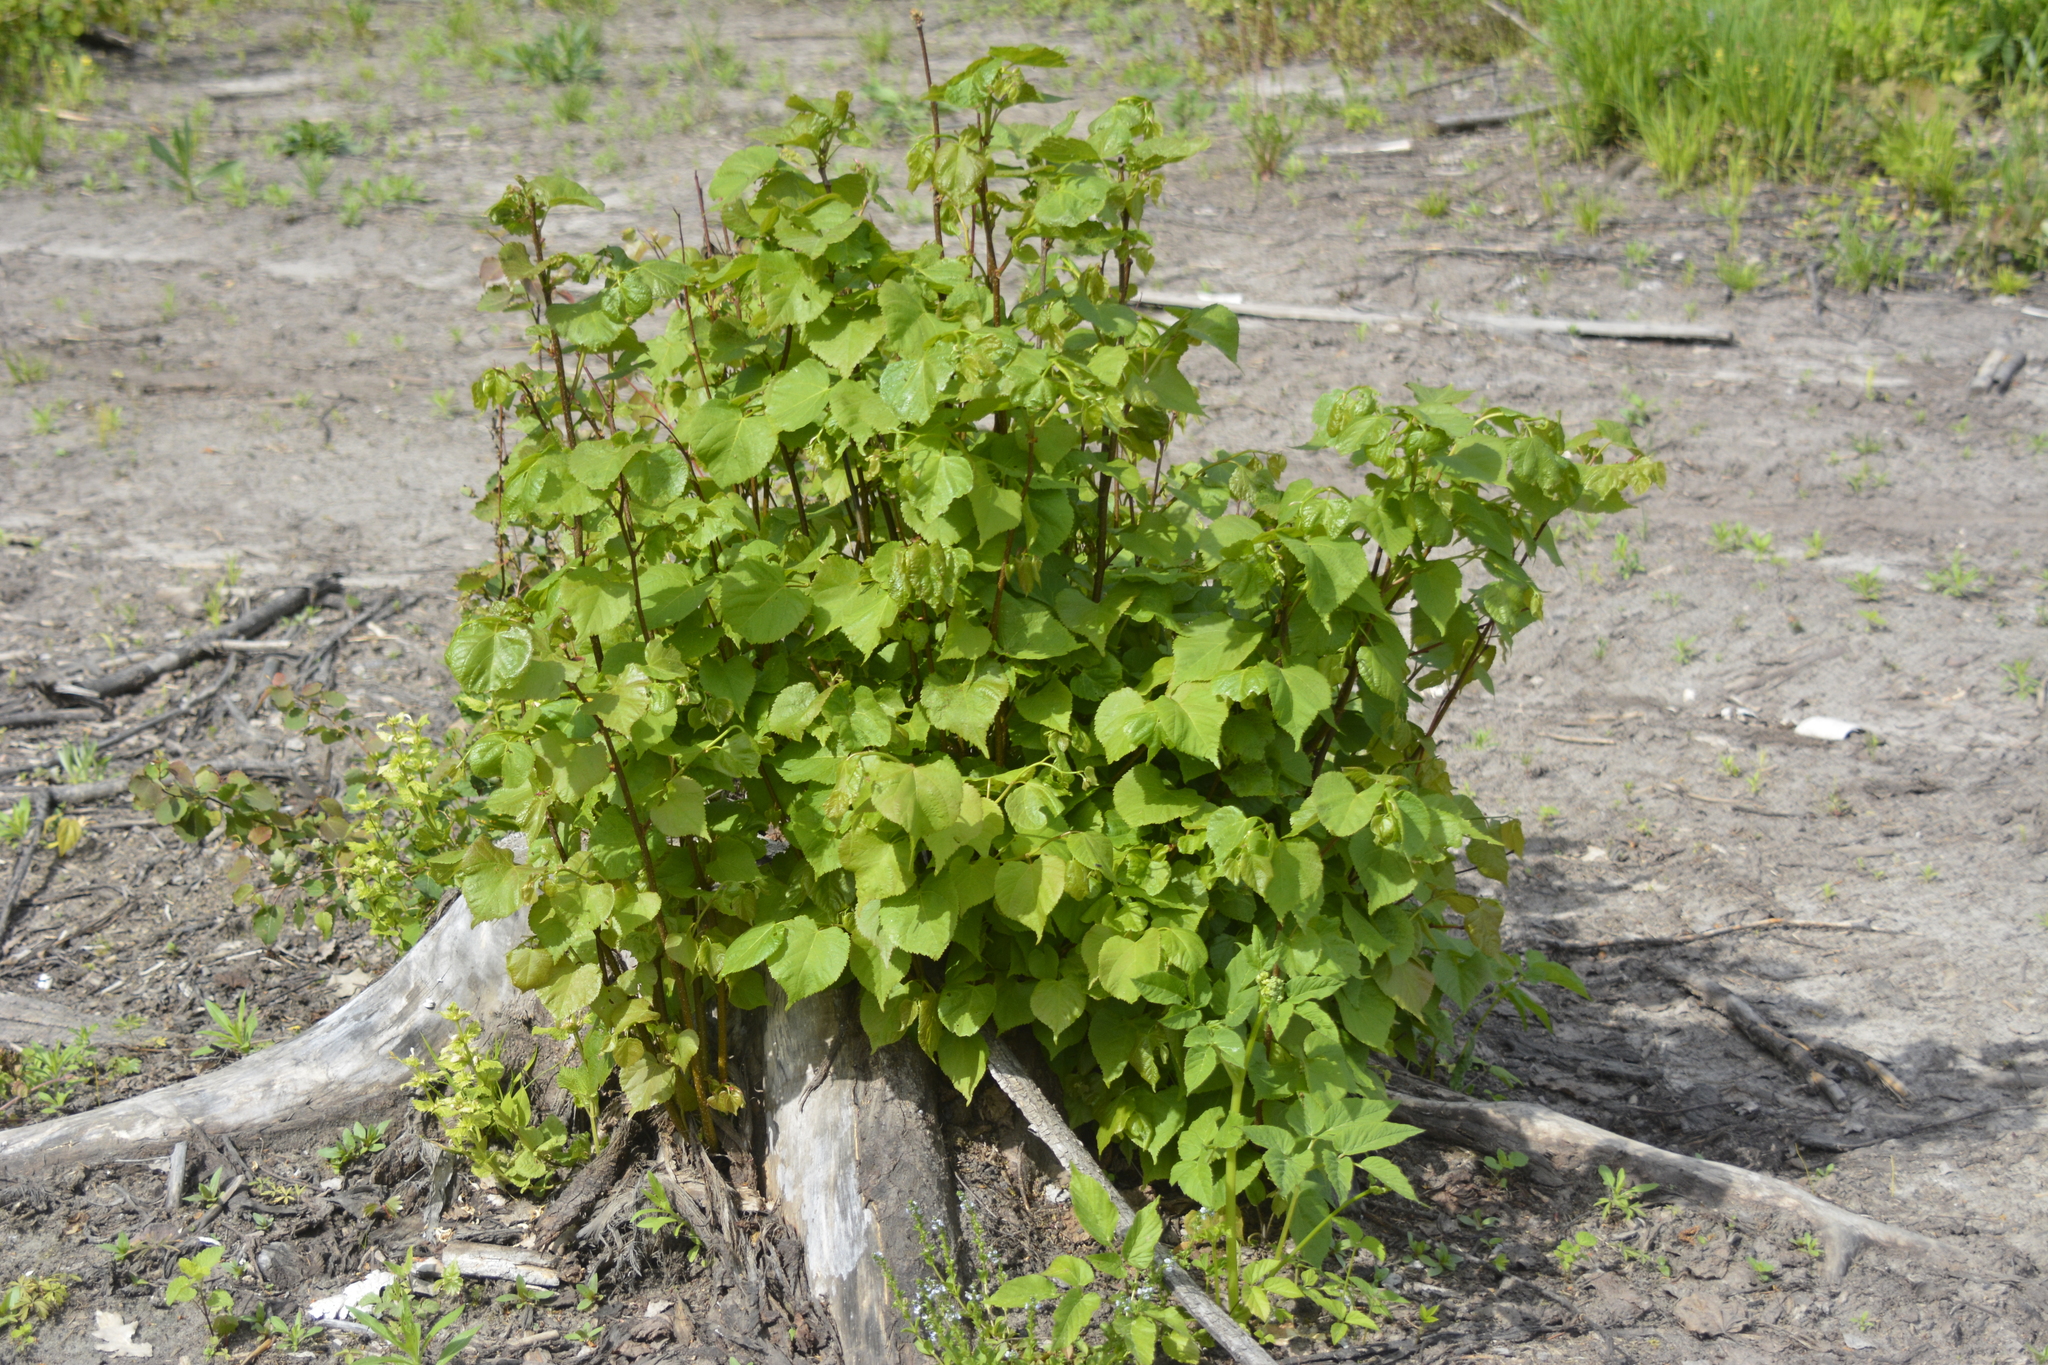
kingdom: Plantae
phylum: Tracheophyta
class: Magnoliopsida
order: Malvales
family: Malvaceae
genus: Tilia
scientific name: Tilia cordata
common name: Small-leaved lime
